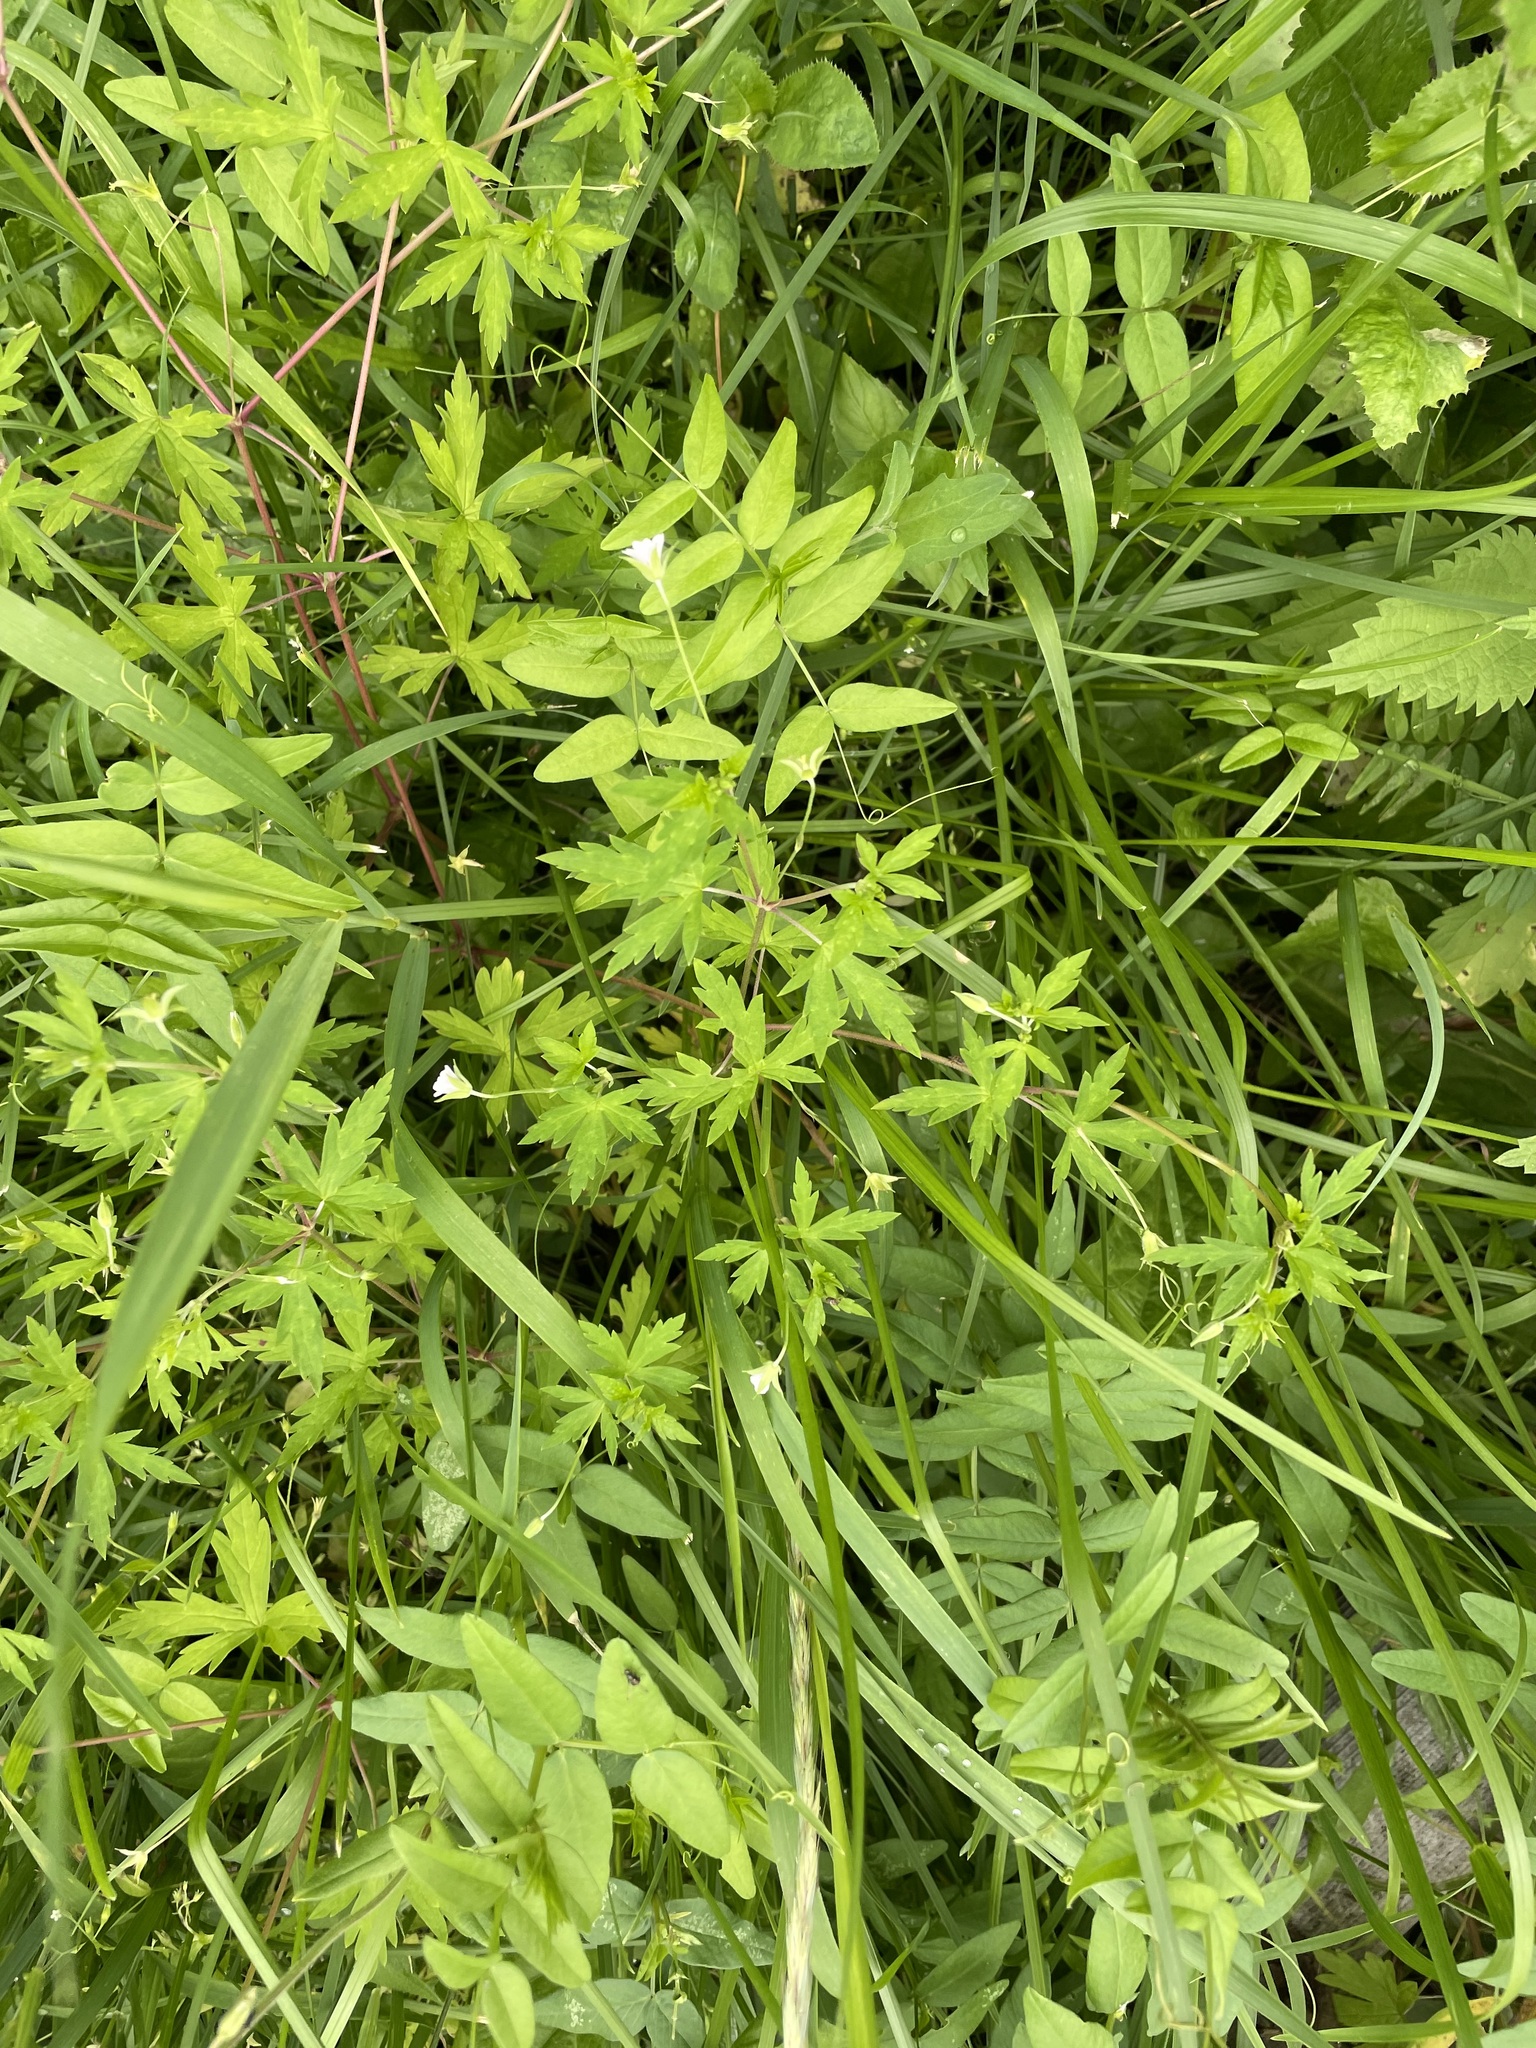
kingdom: Plantae
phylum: Tracheophyta
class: Magnoliopsida
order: Geraniales
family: Geraniaceae
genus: Geranium
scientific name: Geranium sibiricum
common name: Siberian crane's-bill
